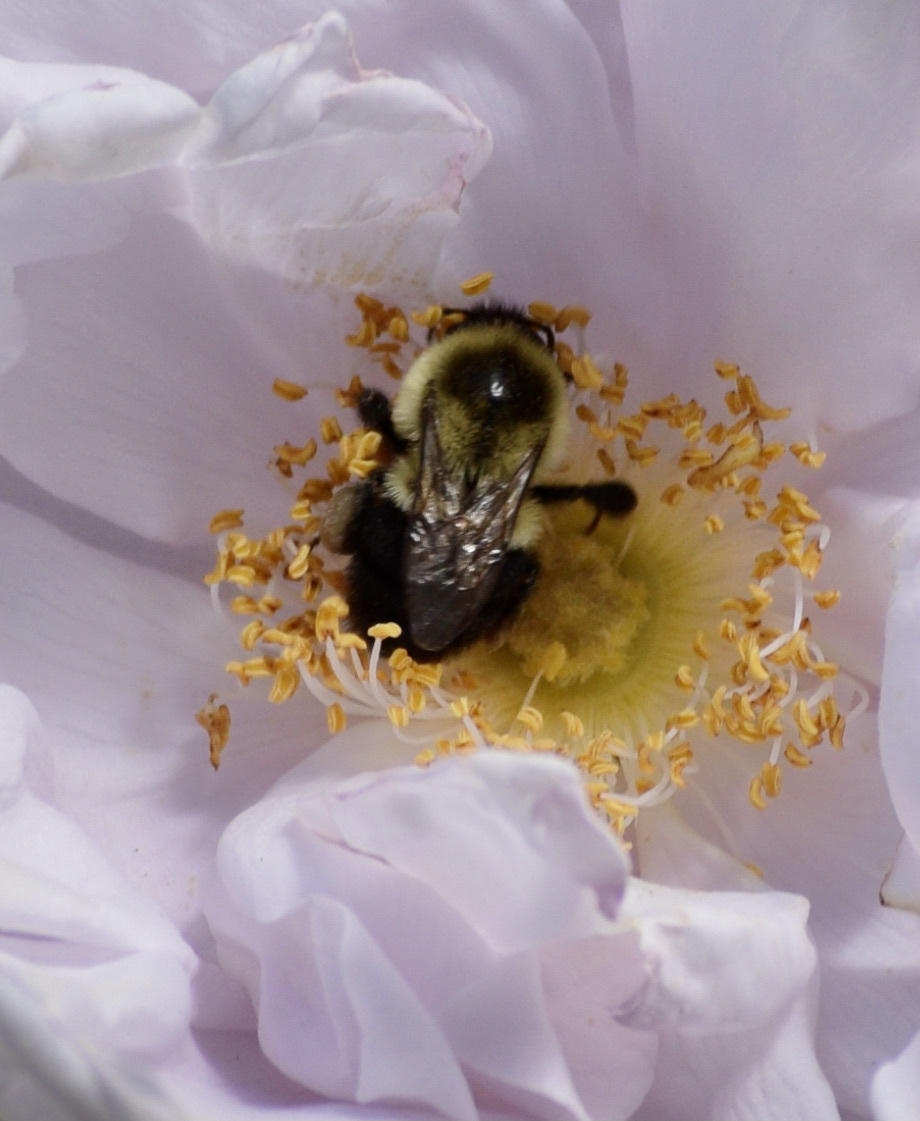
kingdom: Animalia
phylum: Arthropoda
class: Insecta
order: Hymenoptera
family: Apidae
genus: Bombus
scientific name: Bombus impatiens
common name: Common eastern bumble bee
